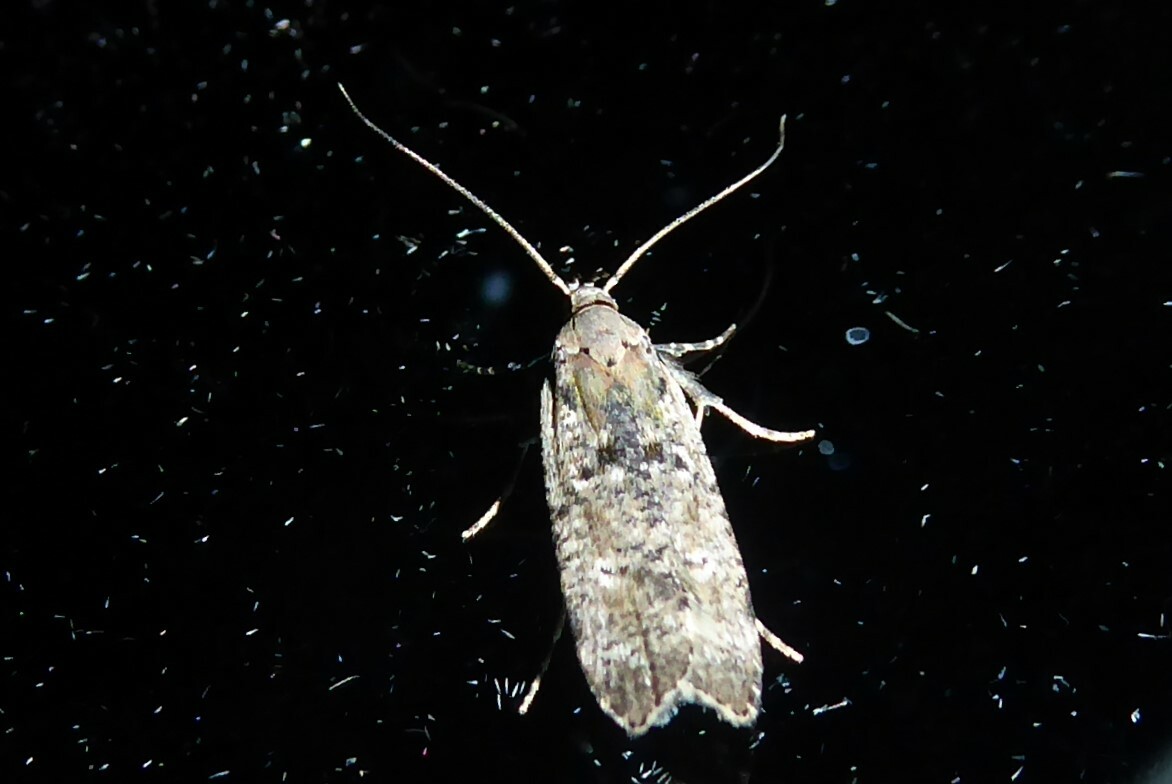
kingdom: Animalia
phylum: Arthropoda
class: Insecta
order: Lepidoptera
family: Gelechiidae
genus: Anisoplaca
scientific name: Anisoplaca achyrota
